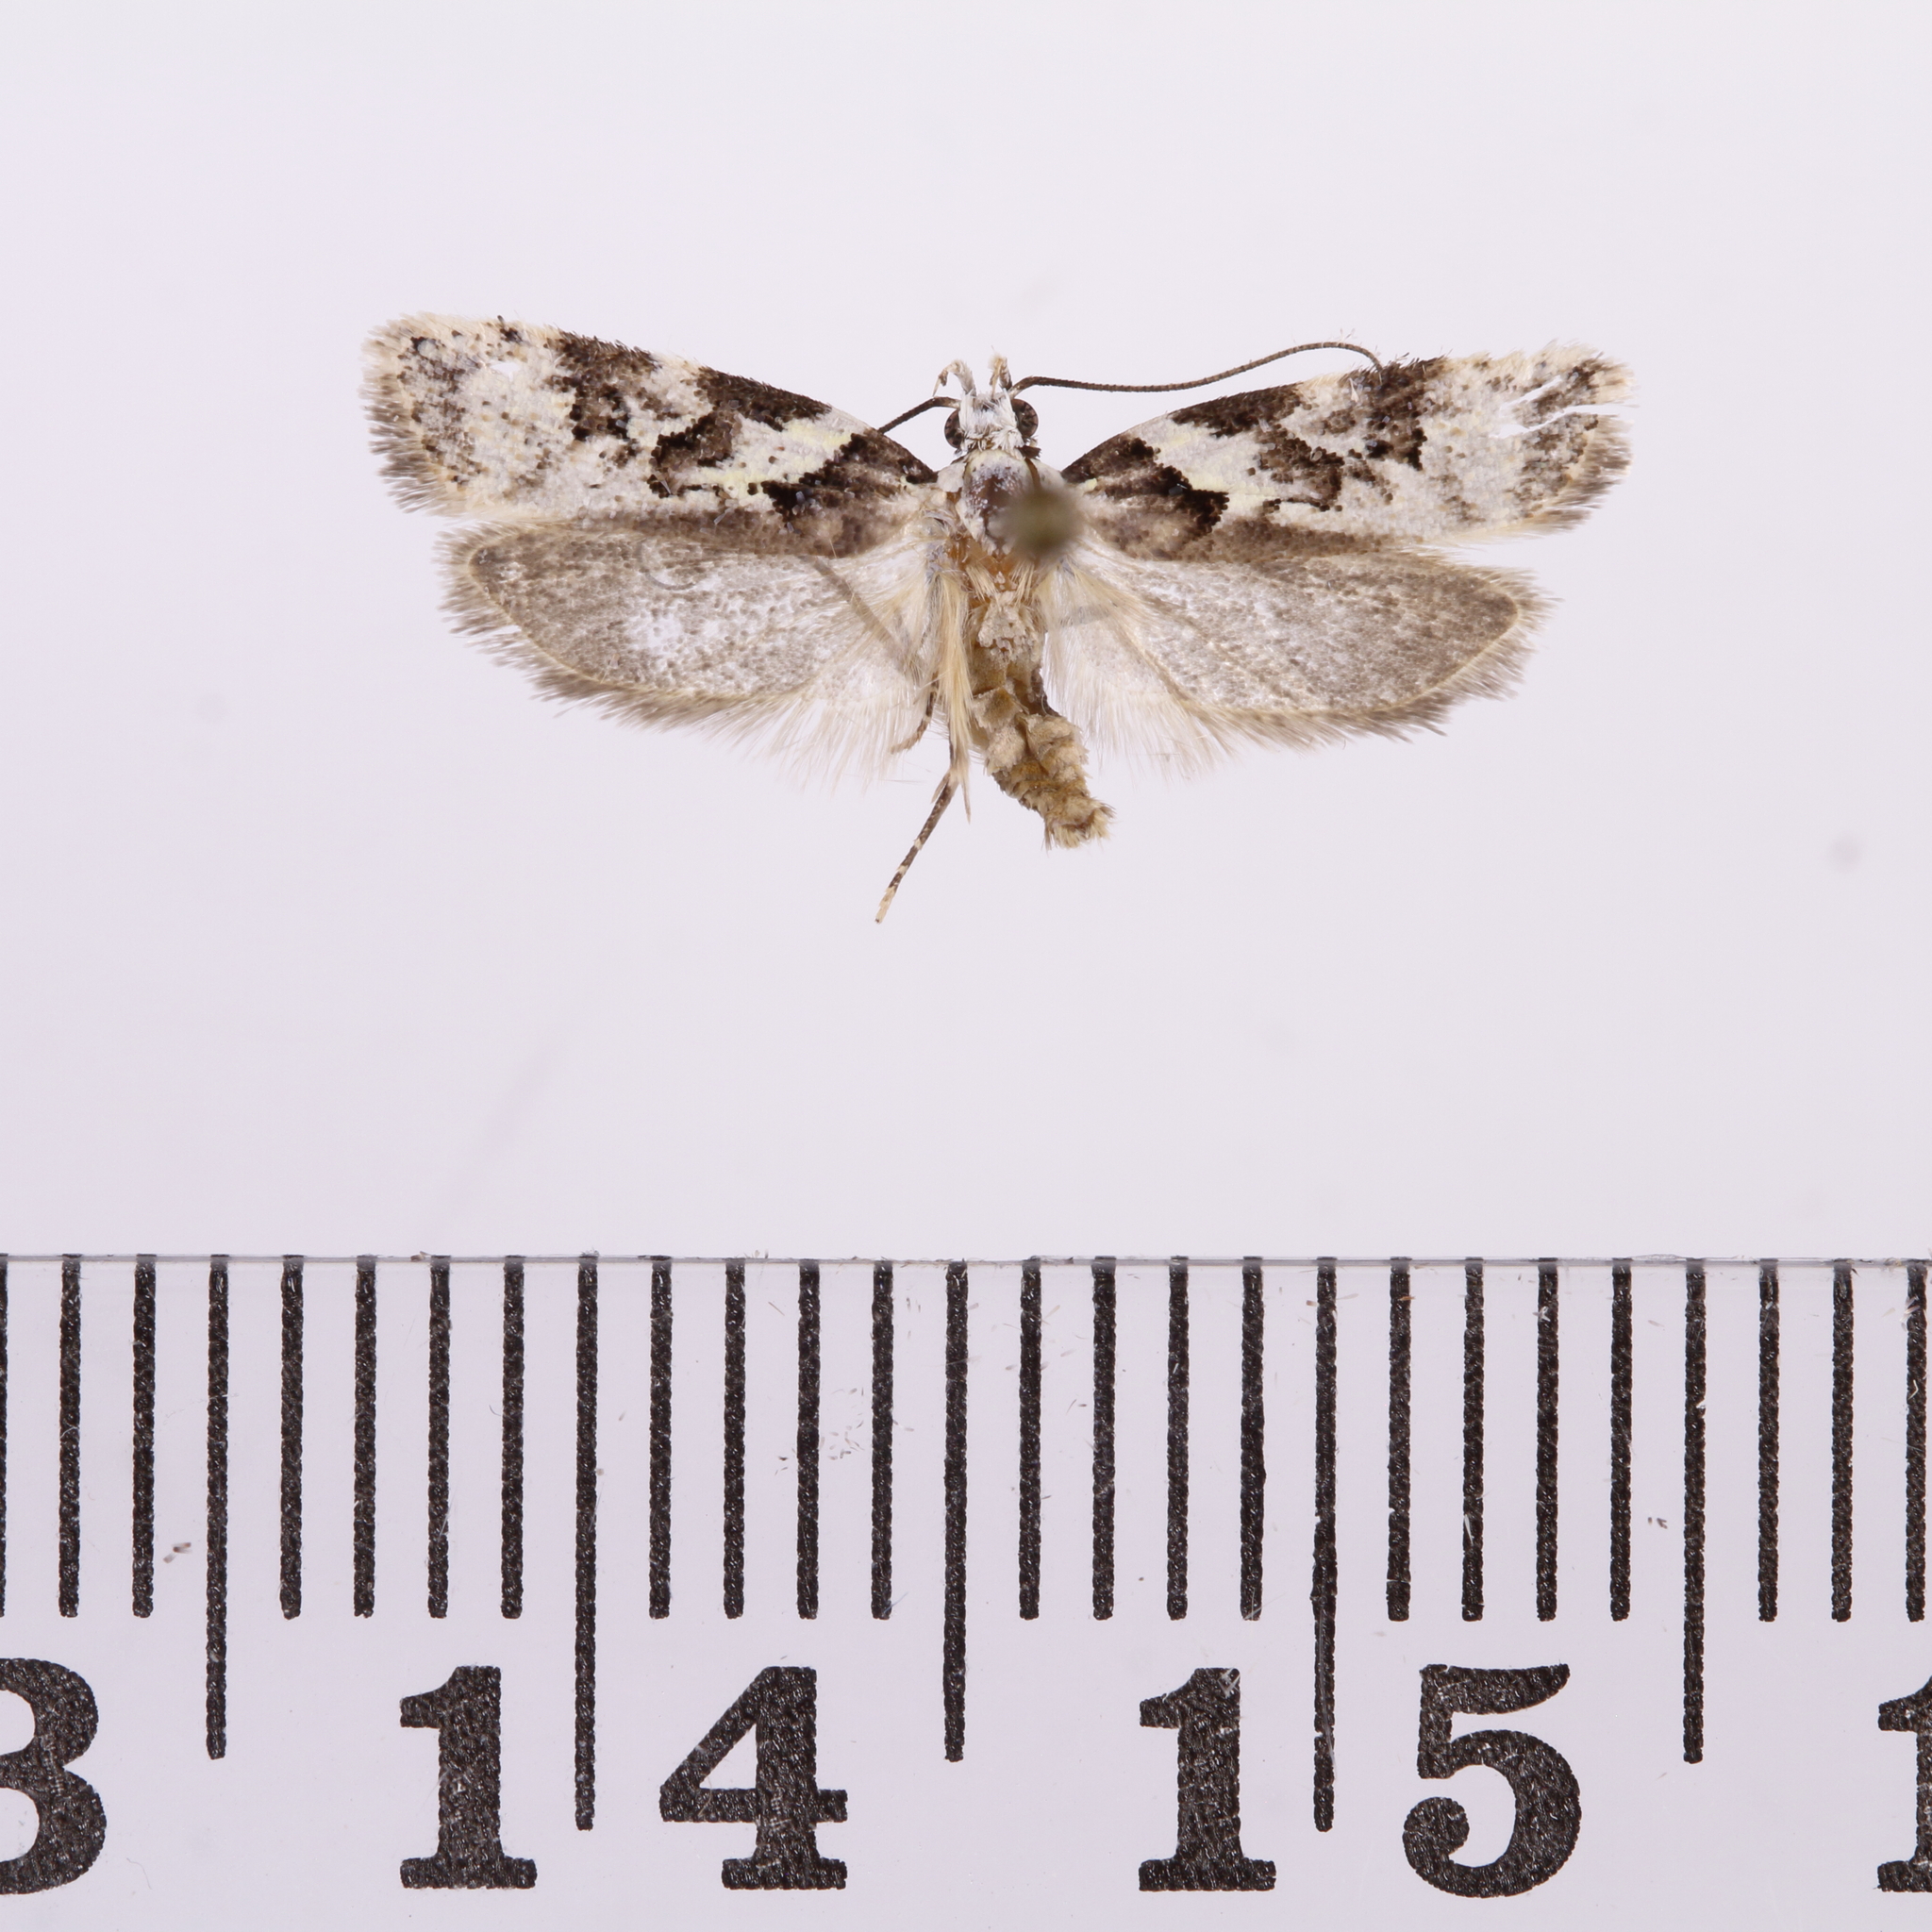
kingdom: Animalia
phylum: Arthropoda
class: Insecta
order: Lepidoptera
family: Oecophoridae
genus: Izatha
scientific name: Izatha epiphanes
